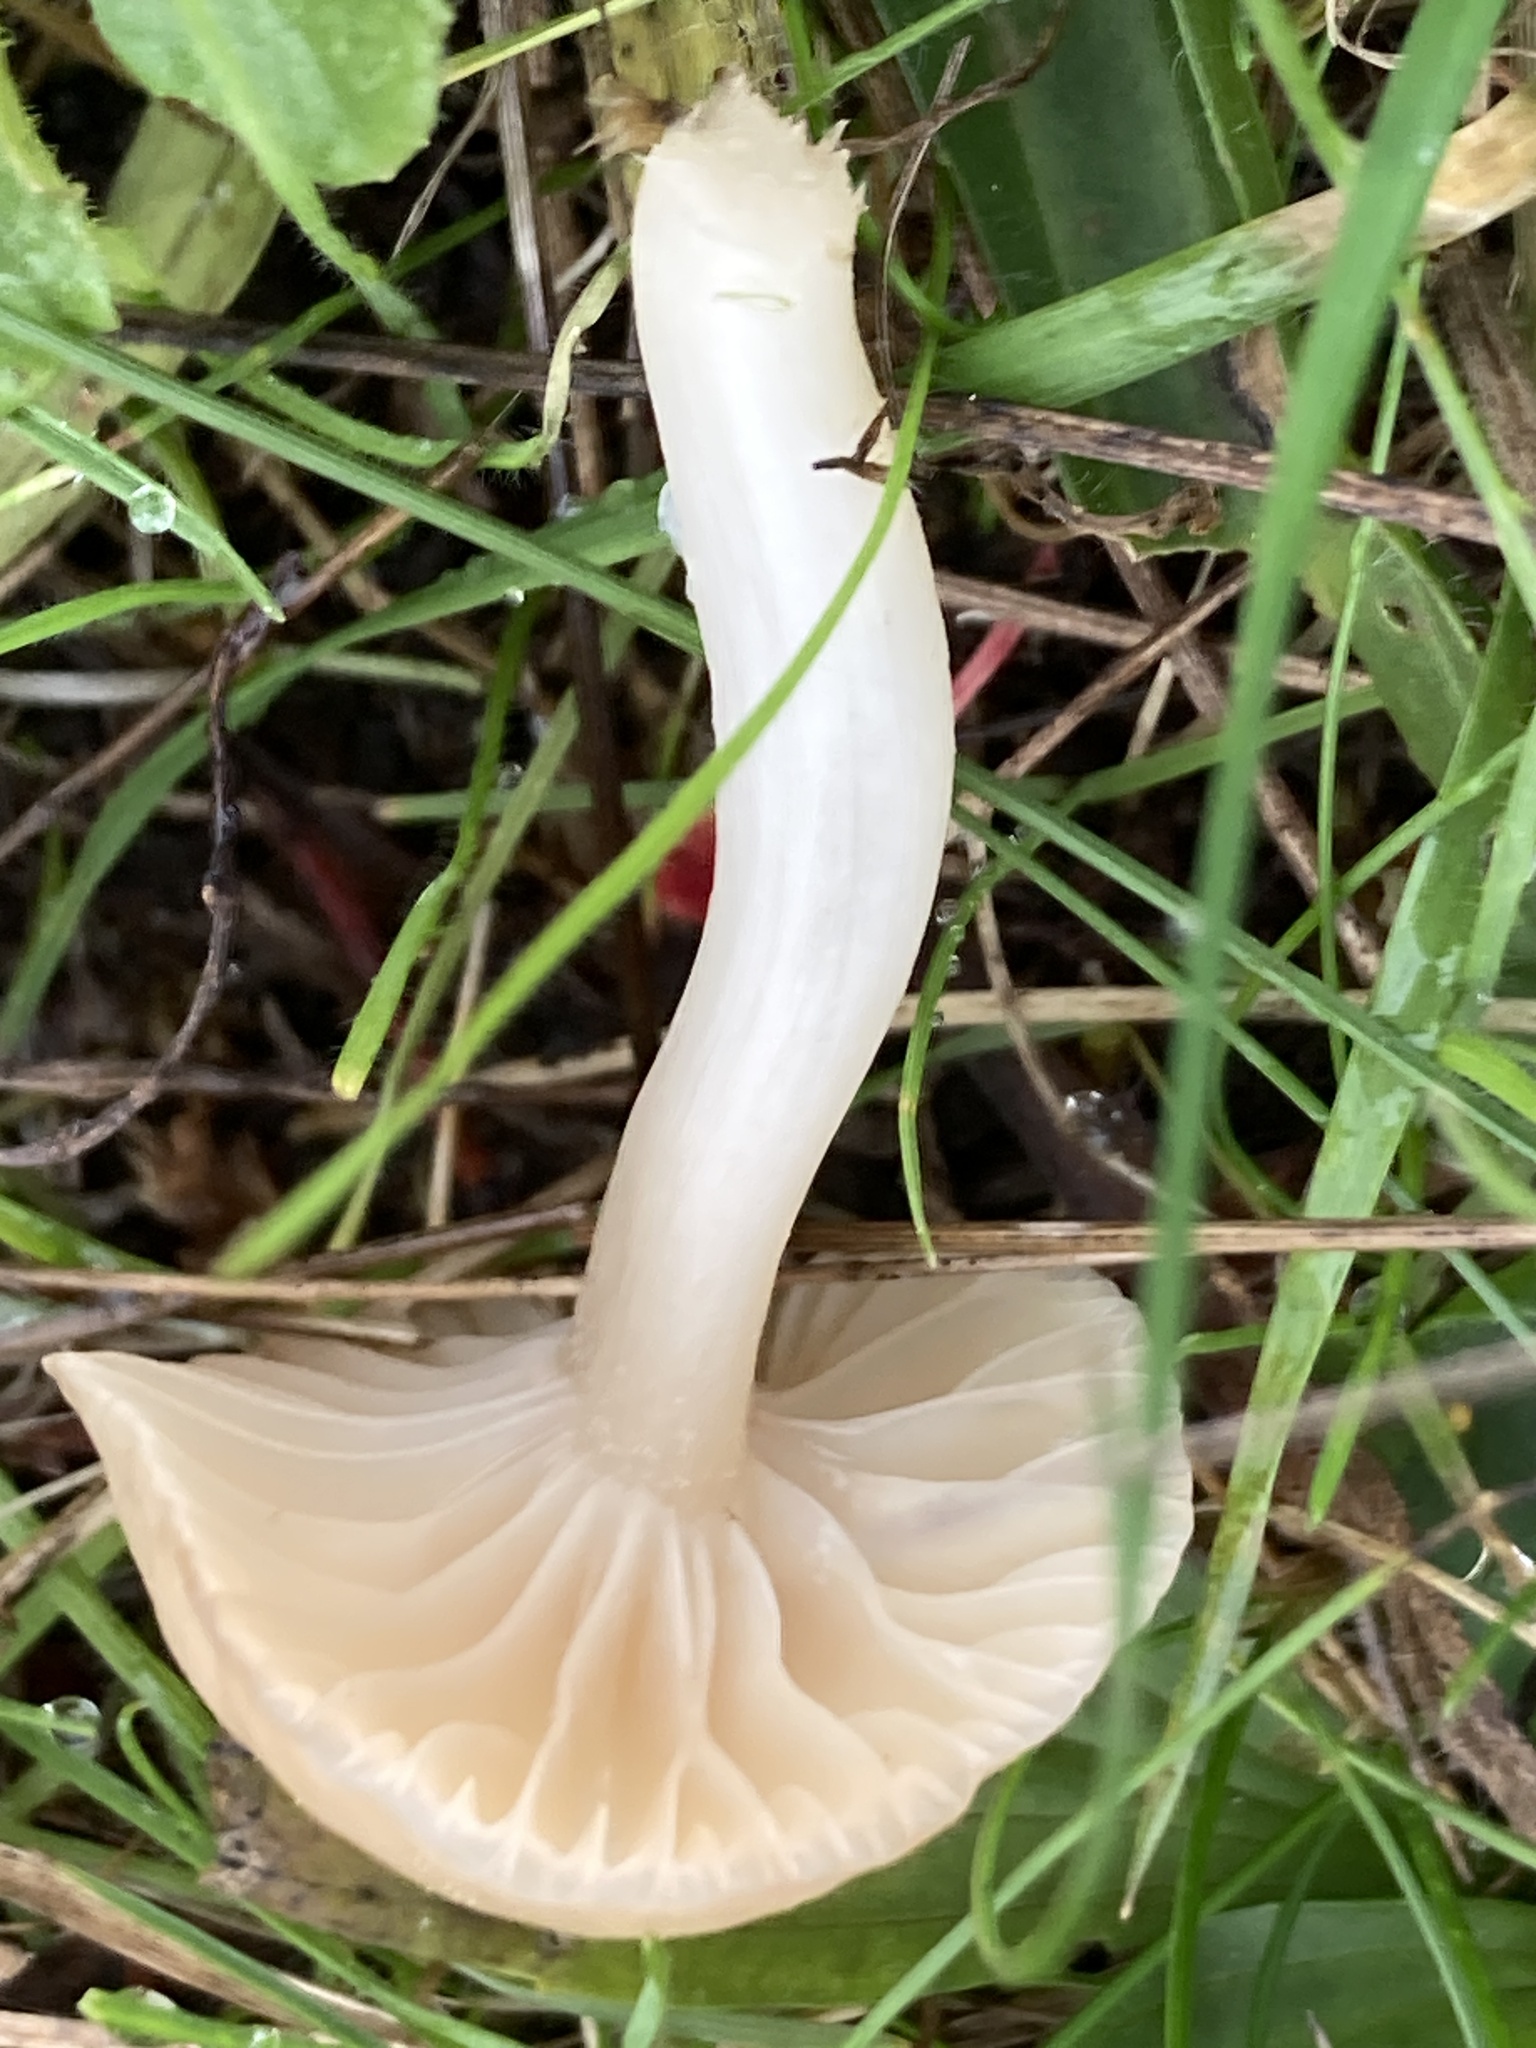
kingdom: Fungi
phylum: Basidiomycota
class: Agaricomycetes
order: Agaricales
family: Hygrophoraceae
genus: Cuphophyllus
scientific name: Cuphophyllus virgineus
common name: Snowy waxcap
